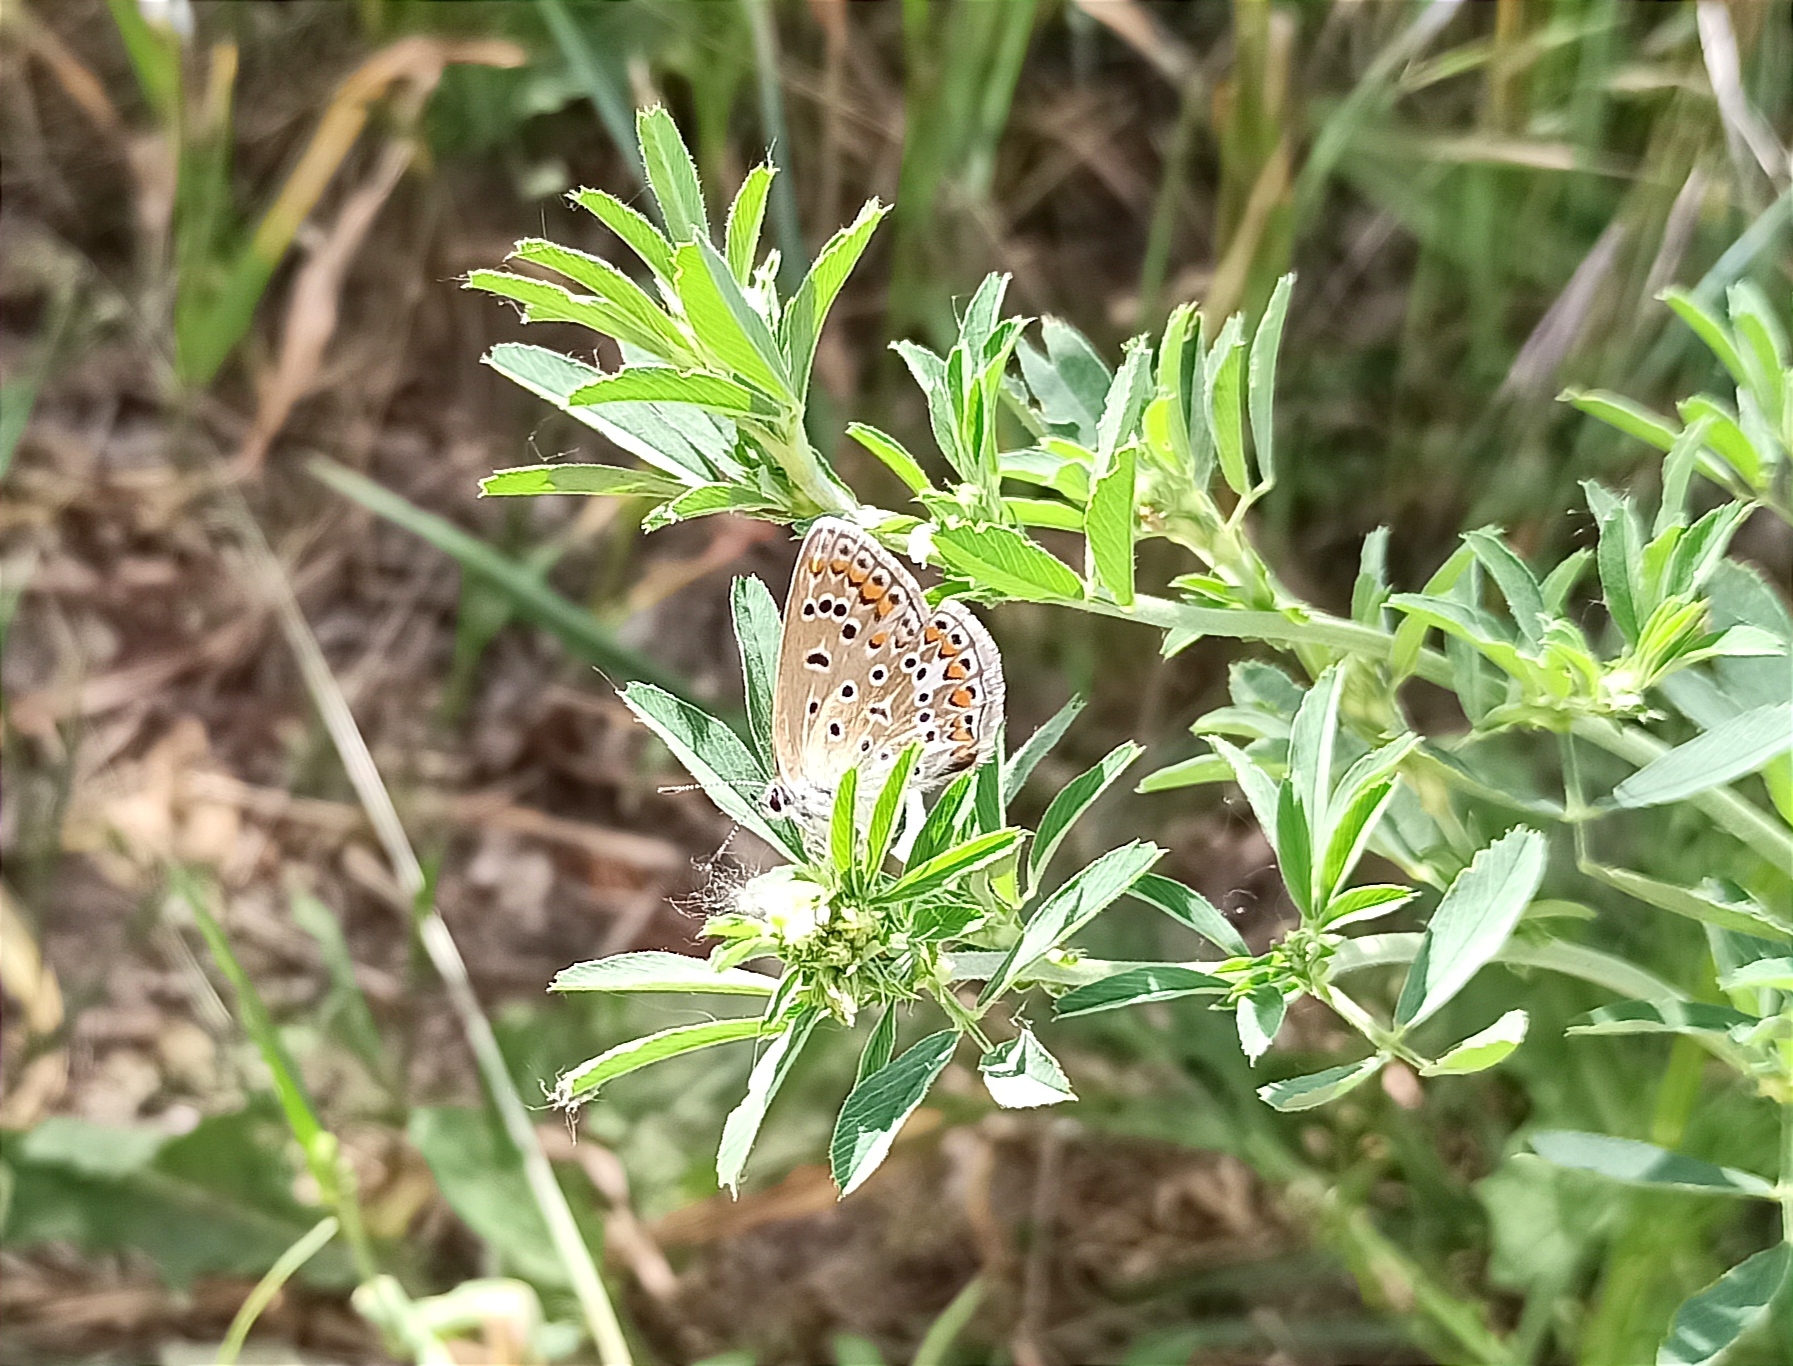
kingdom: Animalia
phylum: Arthropoda
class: Insecta
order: Lepidoptera
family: Lycaenidae
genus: Polyommatus
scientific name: Polyommatus icarus
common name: Common blue
